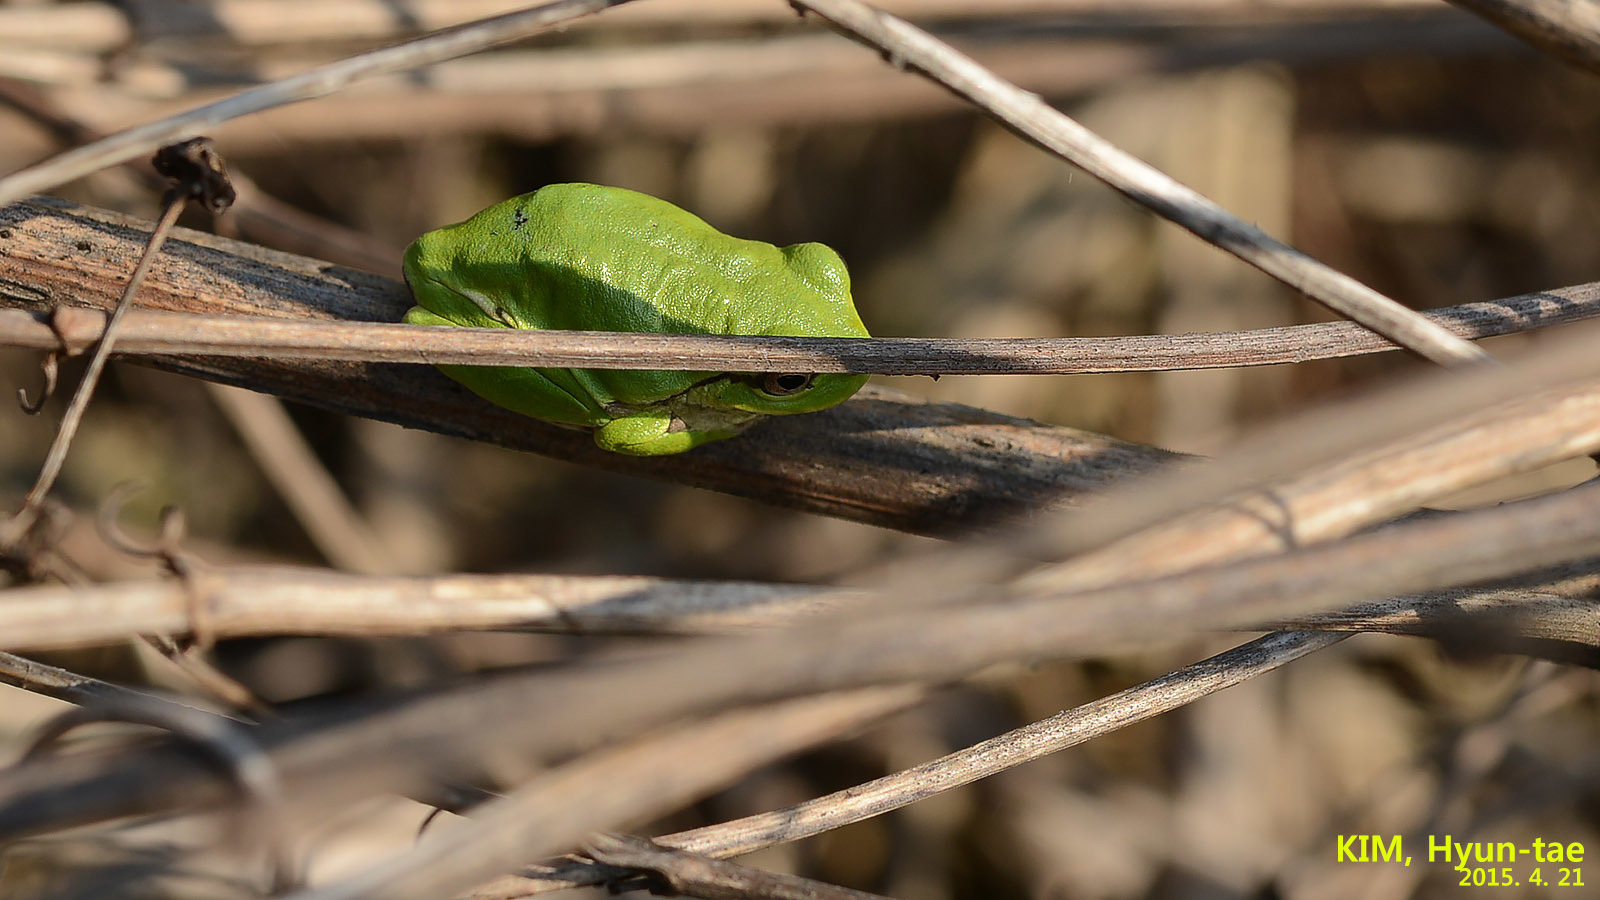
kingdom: Animalia
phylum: Chordata
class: Amphibia
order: Anura
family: Hylidae
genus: Dryophytes
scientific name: Dryophytes immaculatus
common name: North china treefrog
